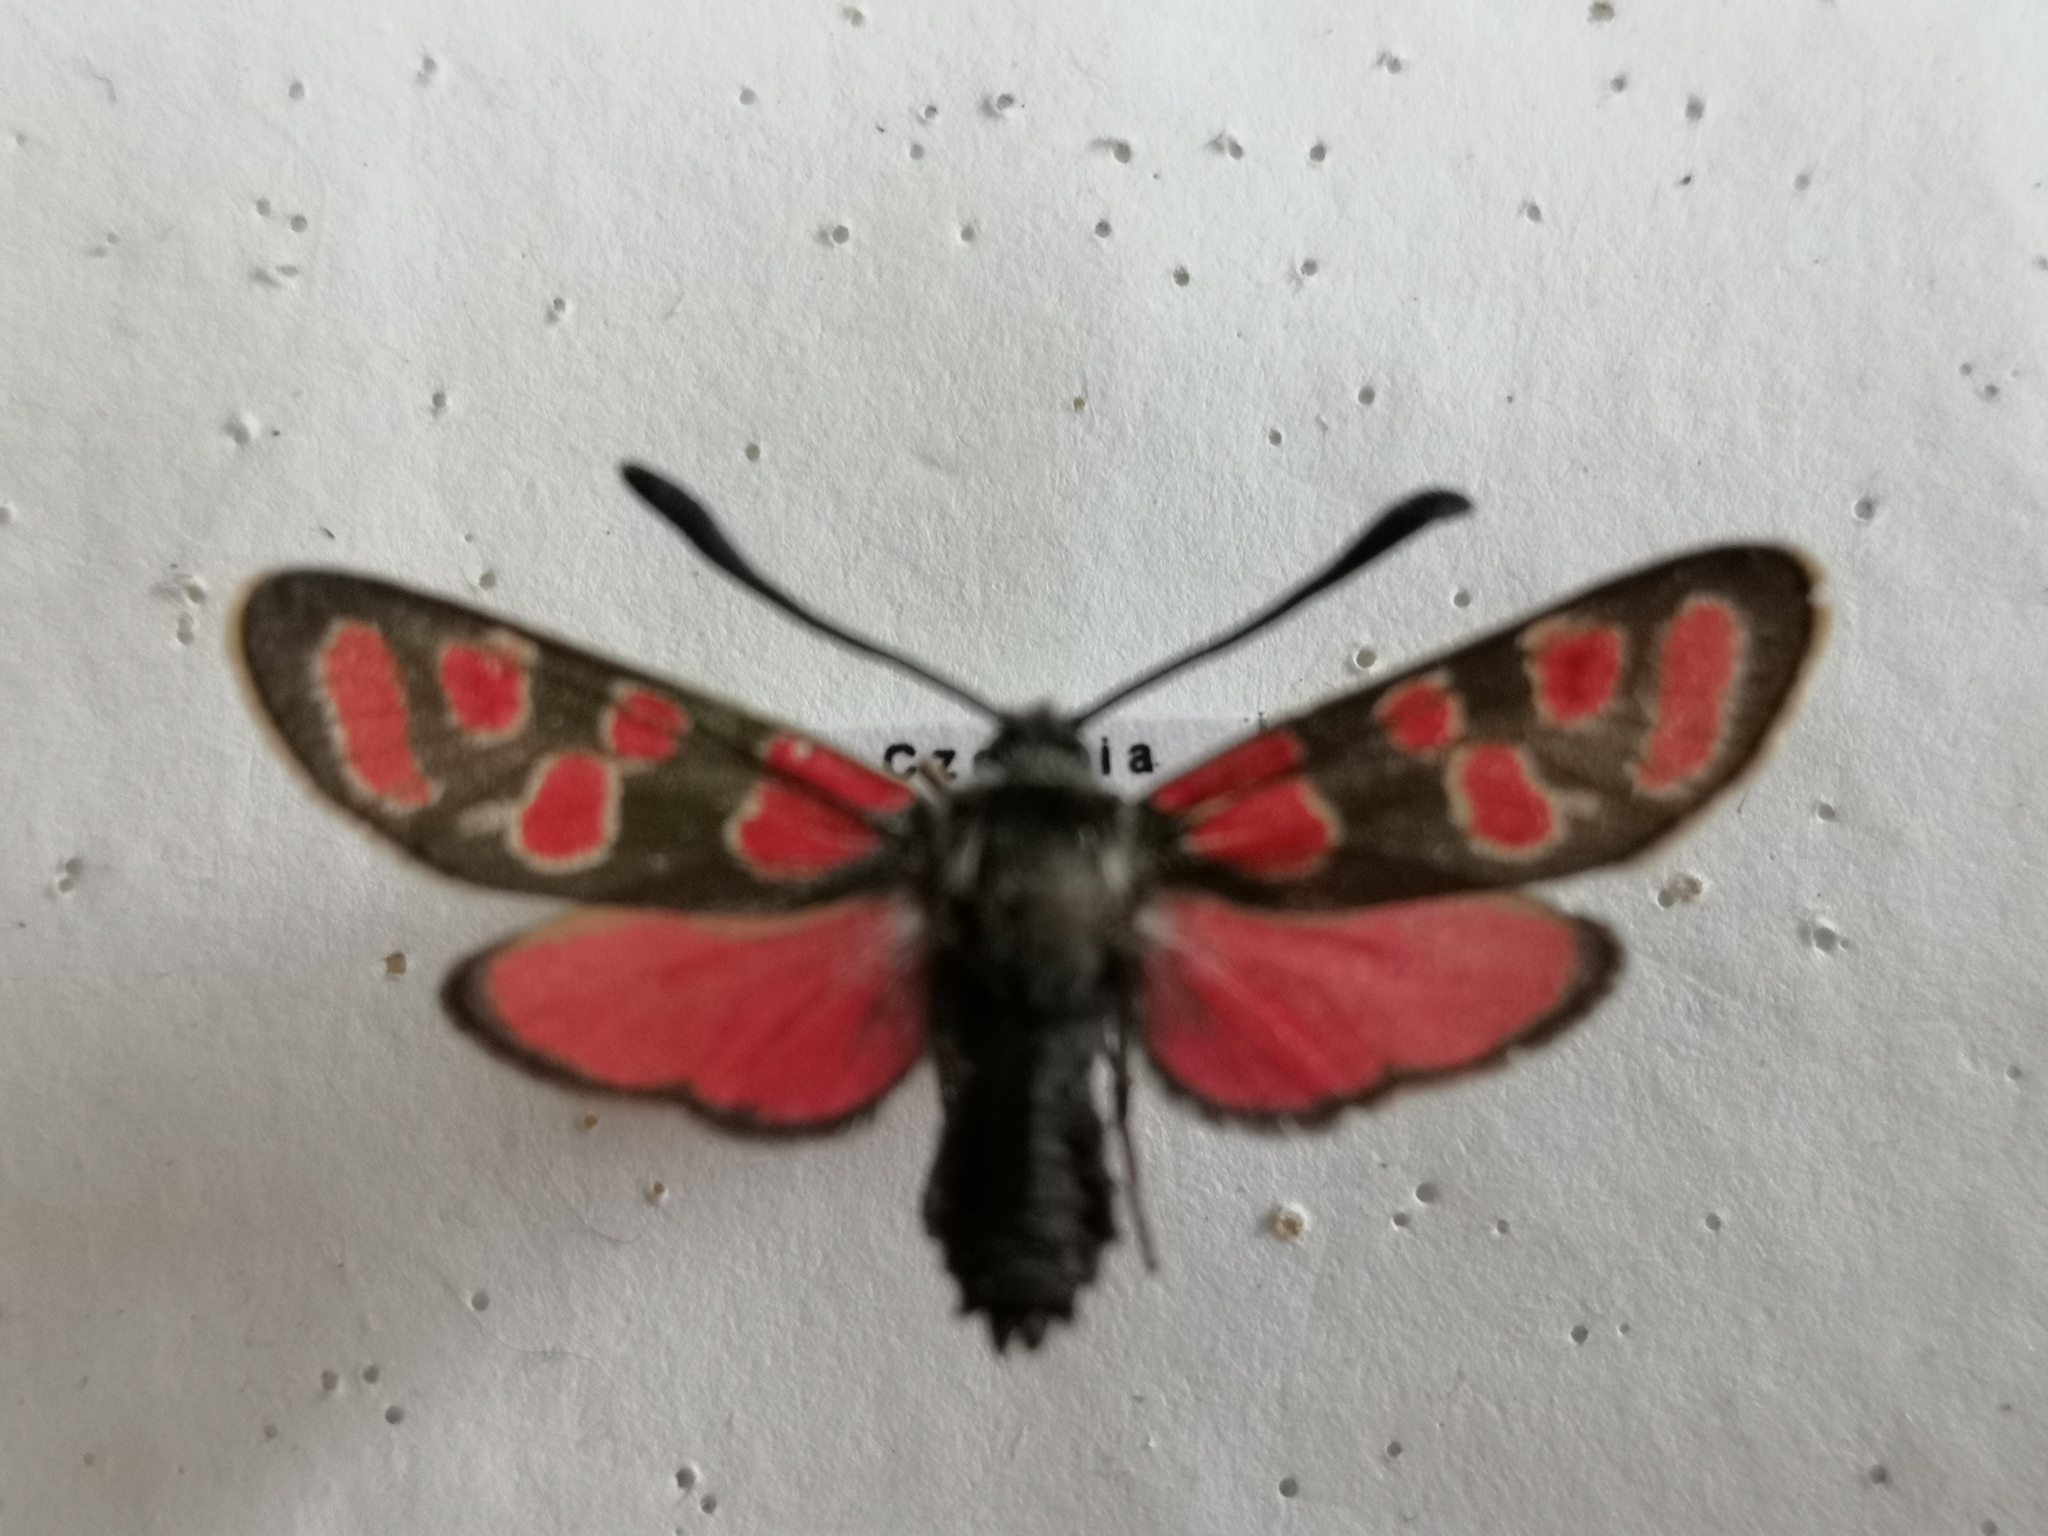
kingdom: Animalia
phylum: Arthropoda
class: Insecta
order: Lepidoptera
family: Zygaenidae
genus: Zygaena
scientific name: Zygaena carniolica
